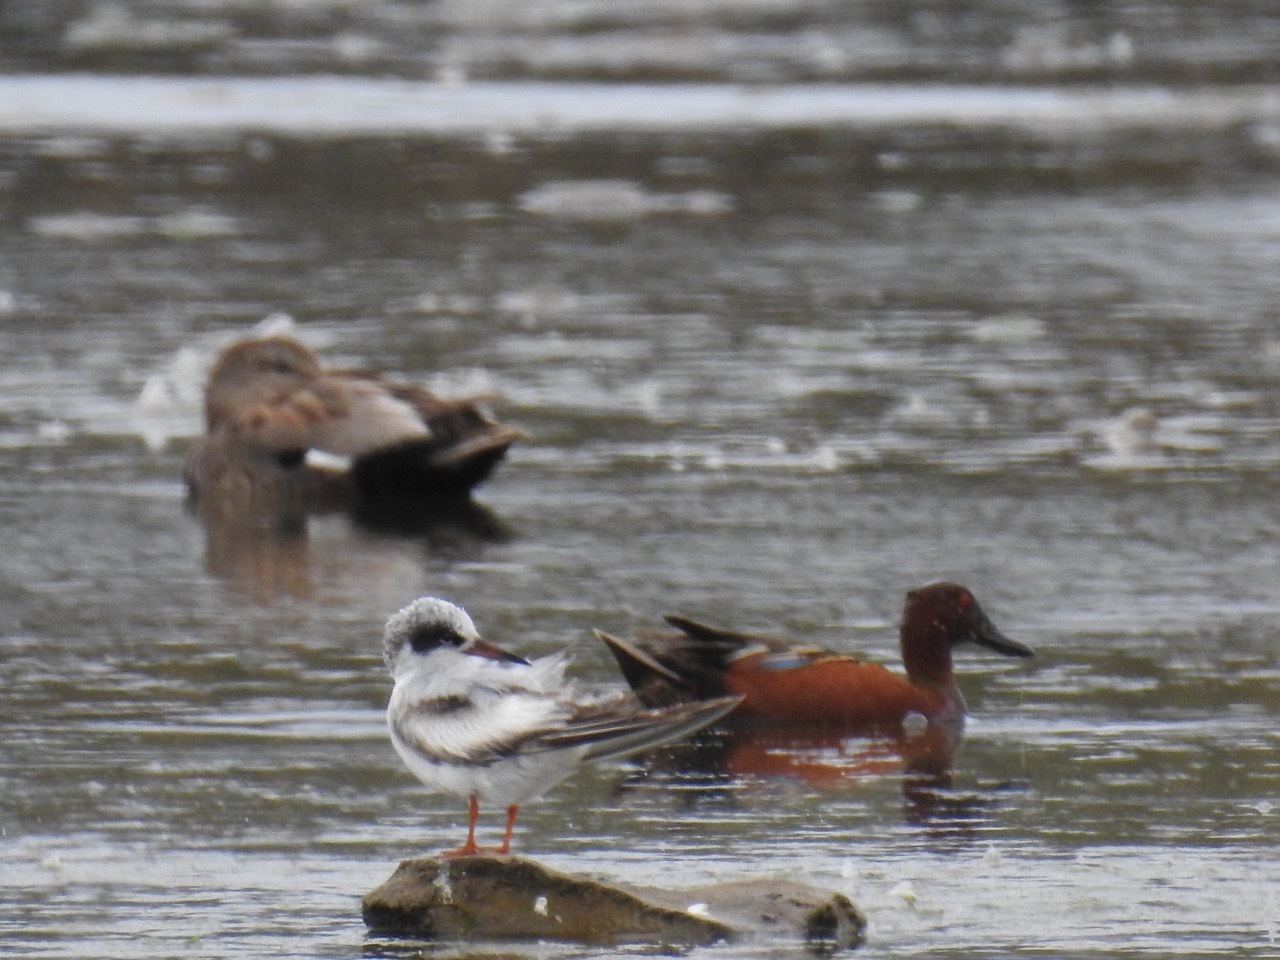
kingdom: Animalia
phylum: Chordata
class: Aves
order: Charadriiformes
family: Laridae
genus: Sterna
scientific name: Sterna hirundo
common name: Common tern
